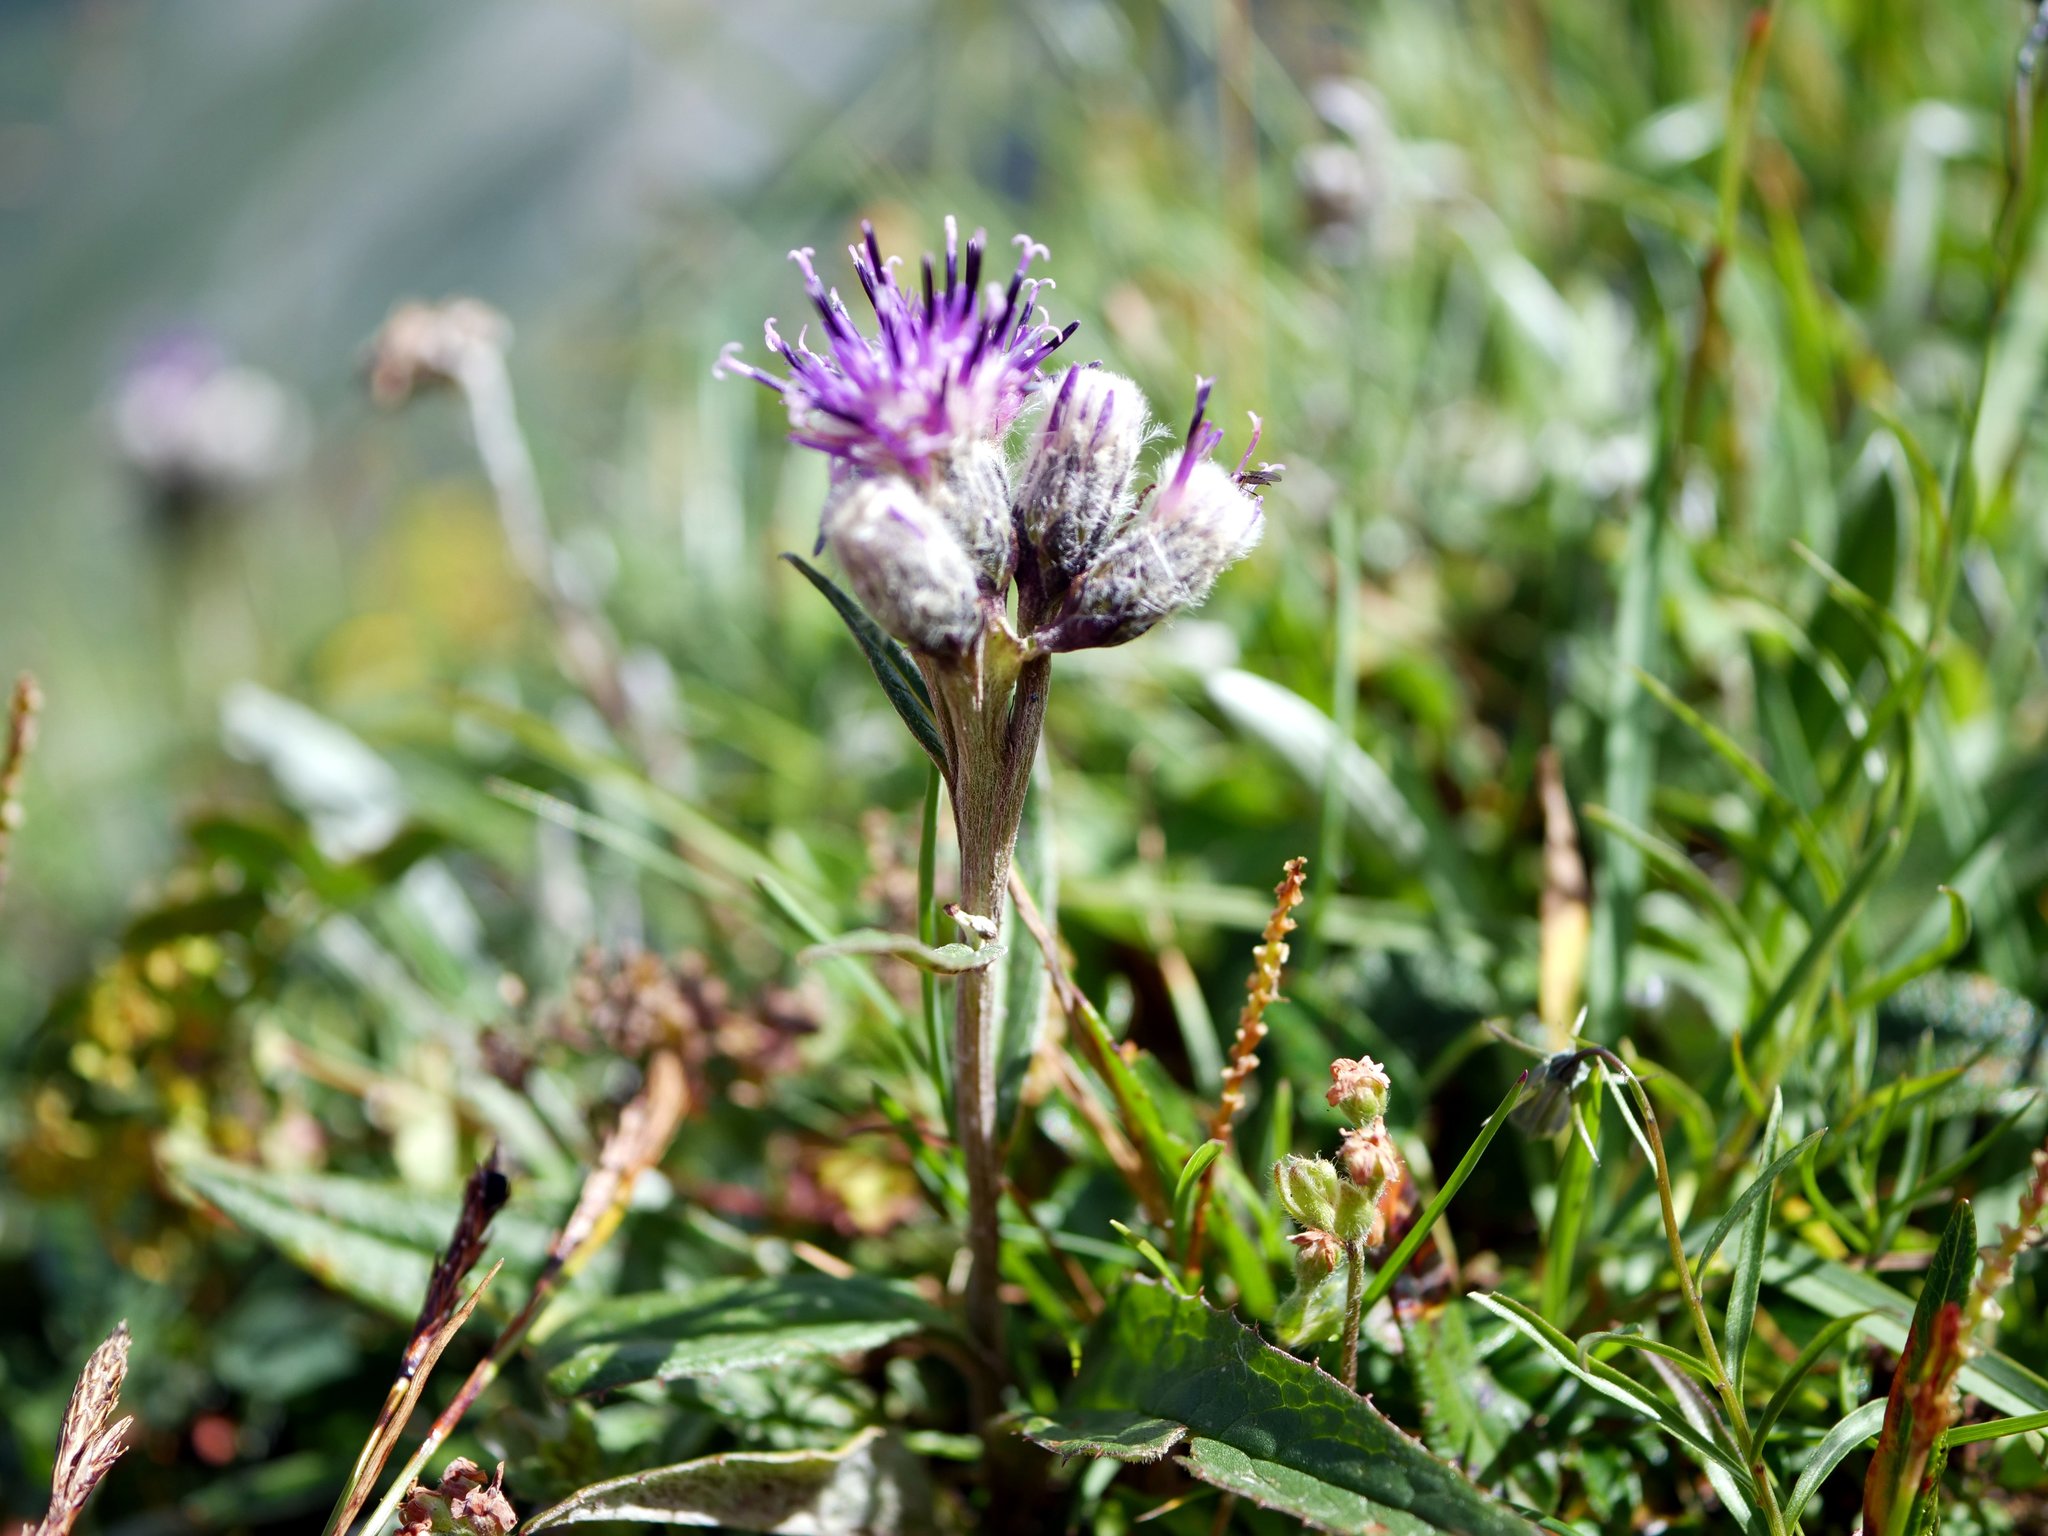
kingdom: Plantae
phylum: Tracheophyta
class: Magnoliopsida
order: Asterales
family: Asteraceae
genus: Saussurea
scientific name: Saussurea alpina
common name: Alpine saw-wort
